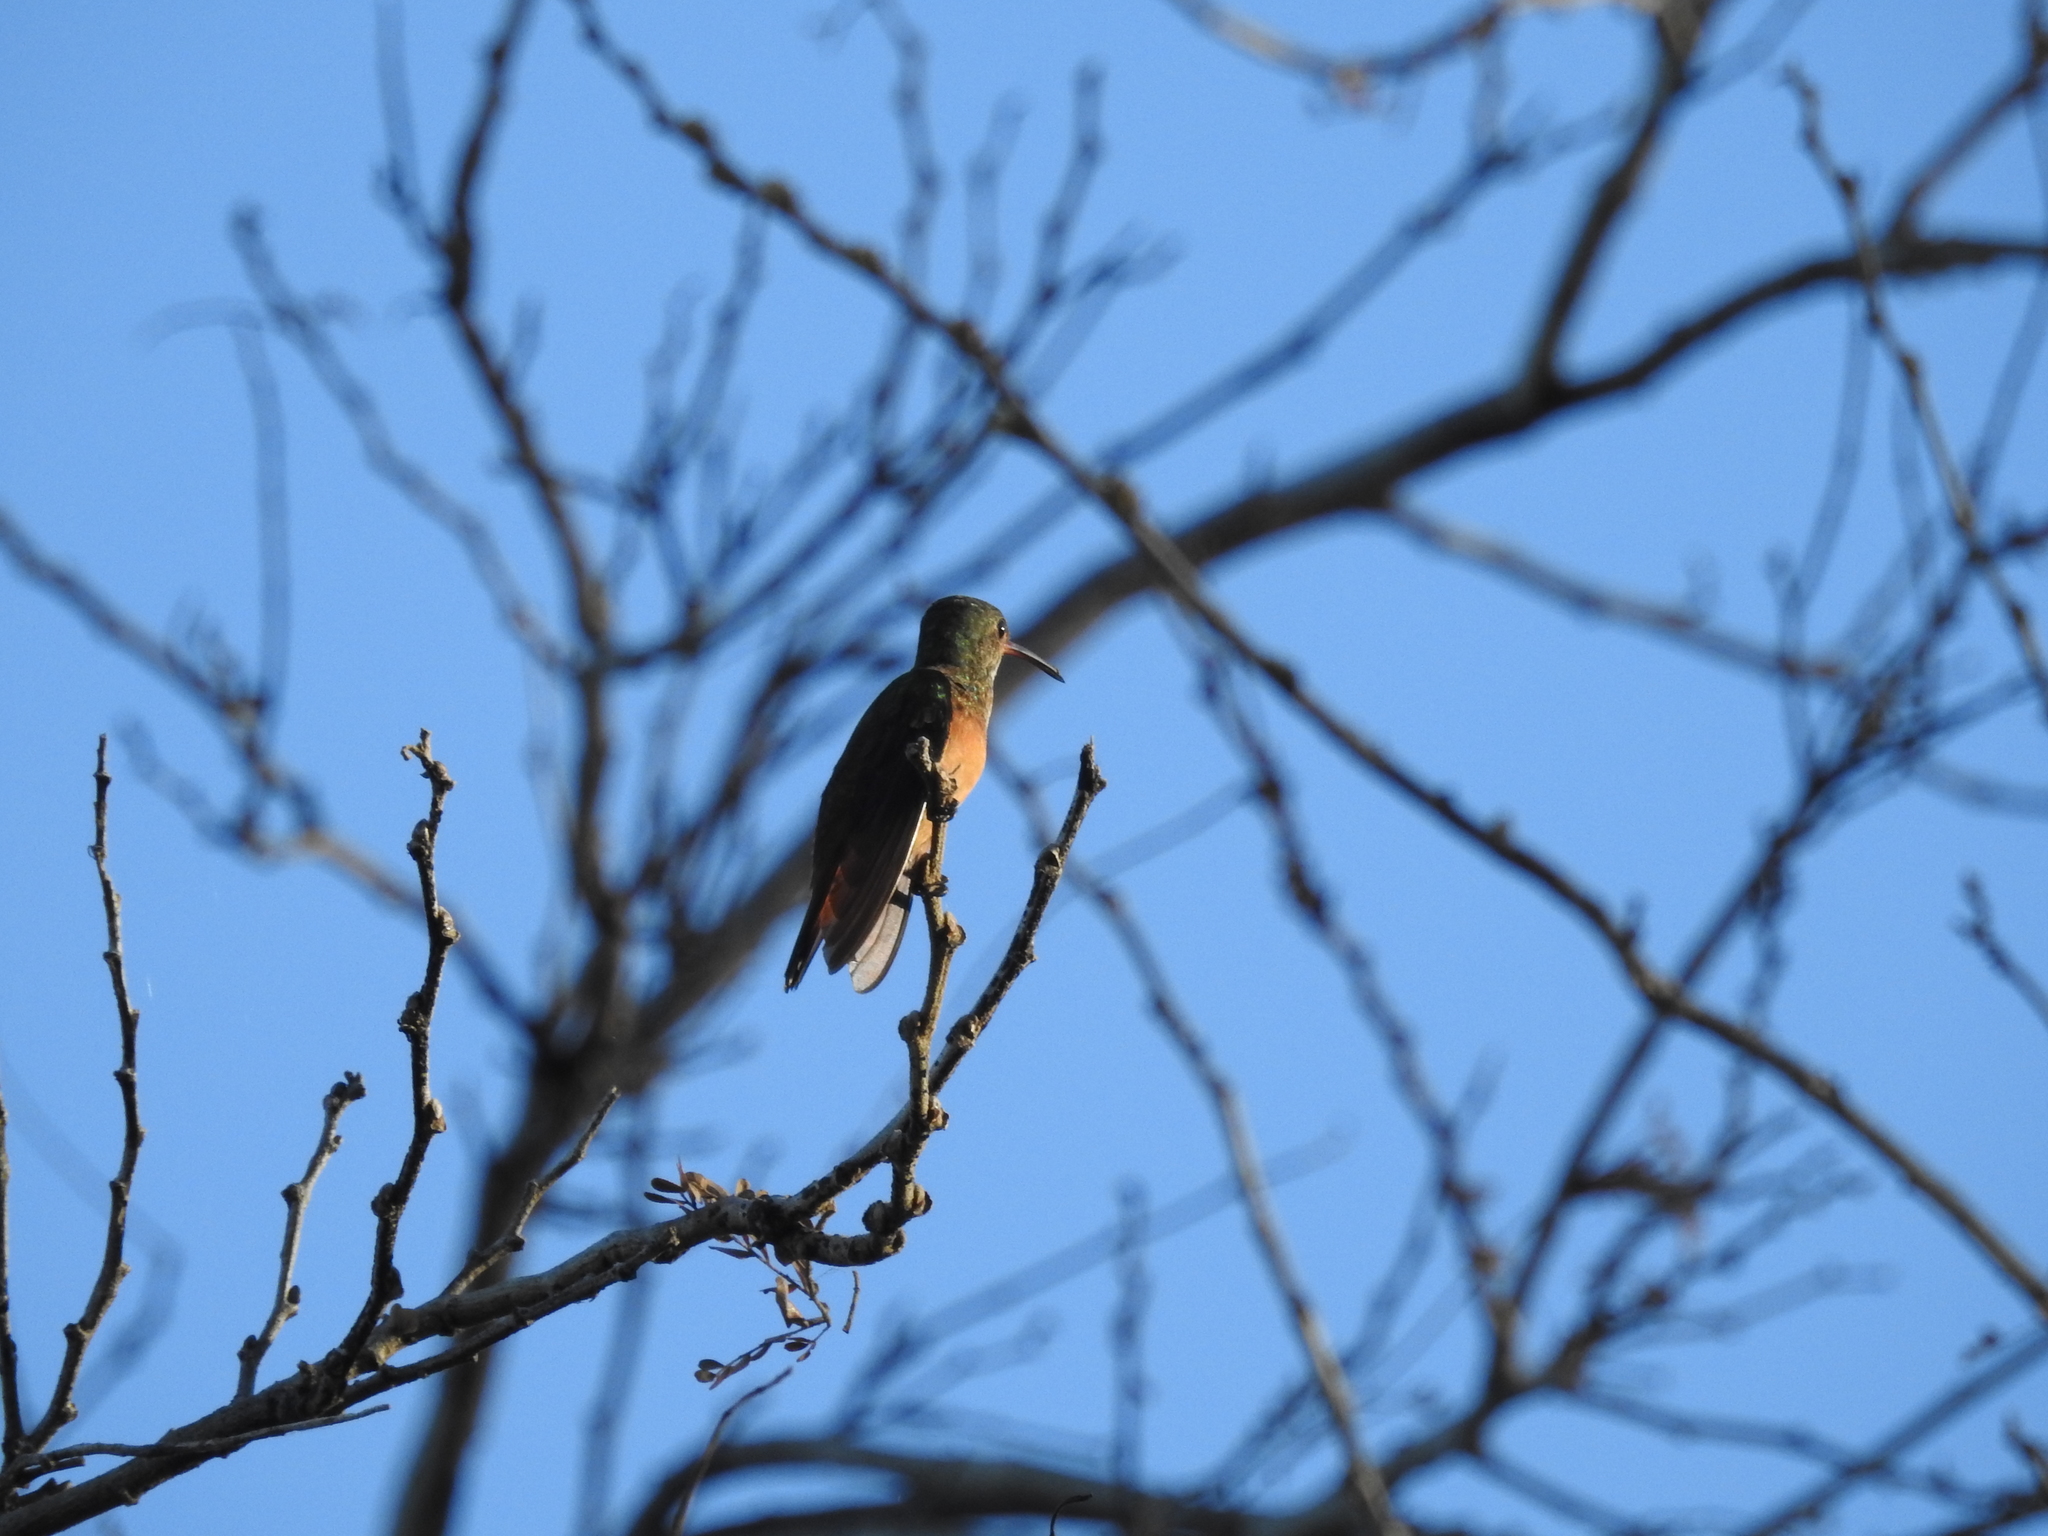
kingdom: Animalia
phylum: Chordata
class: Aves
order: Apodiformes
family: Trochilidae
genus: Amazilia
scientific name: Amazilia rutila
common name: Cinnamon hummingbird
